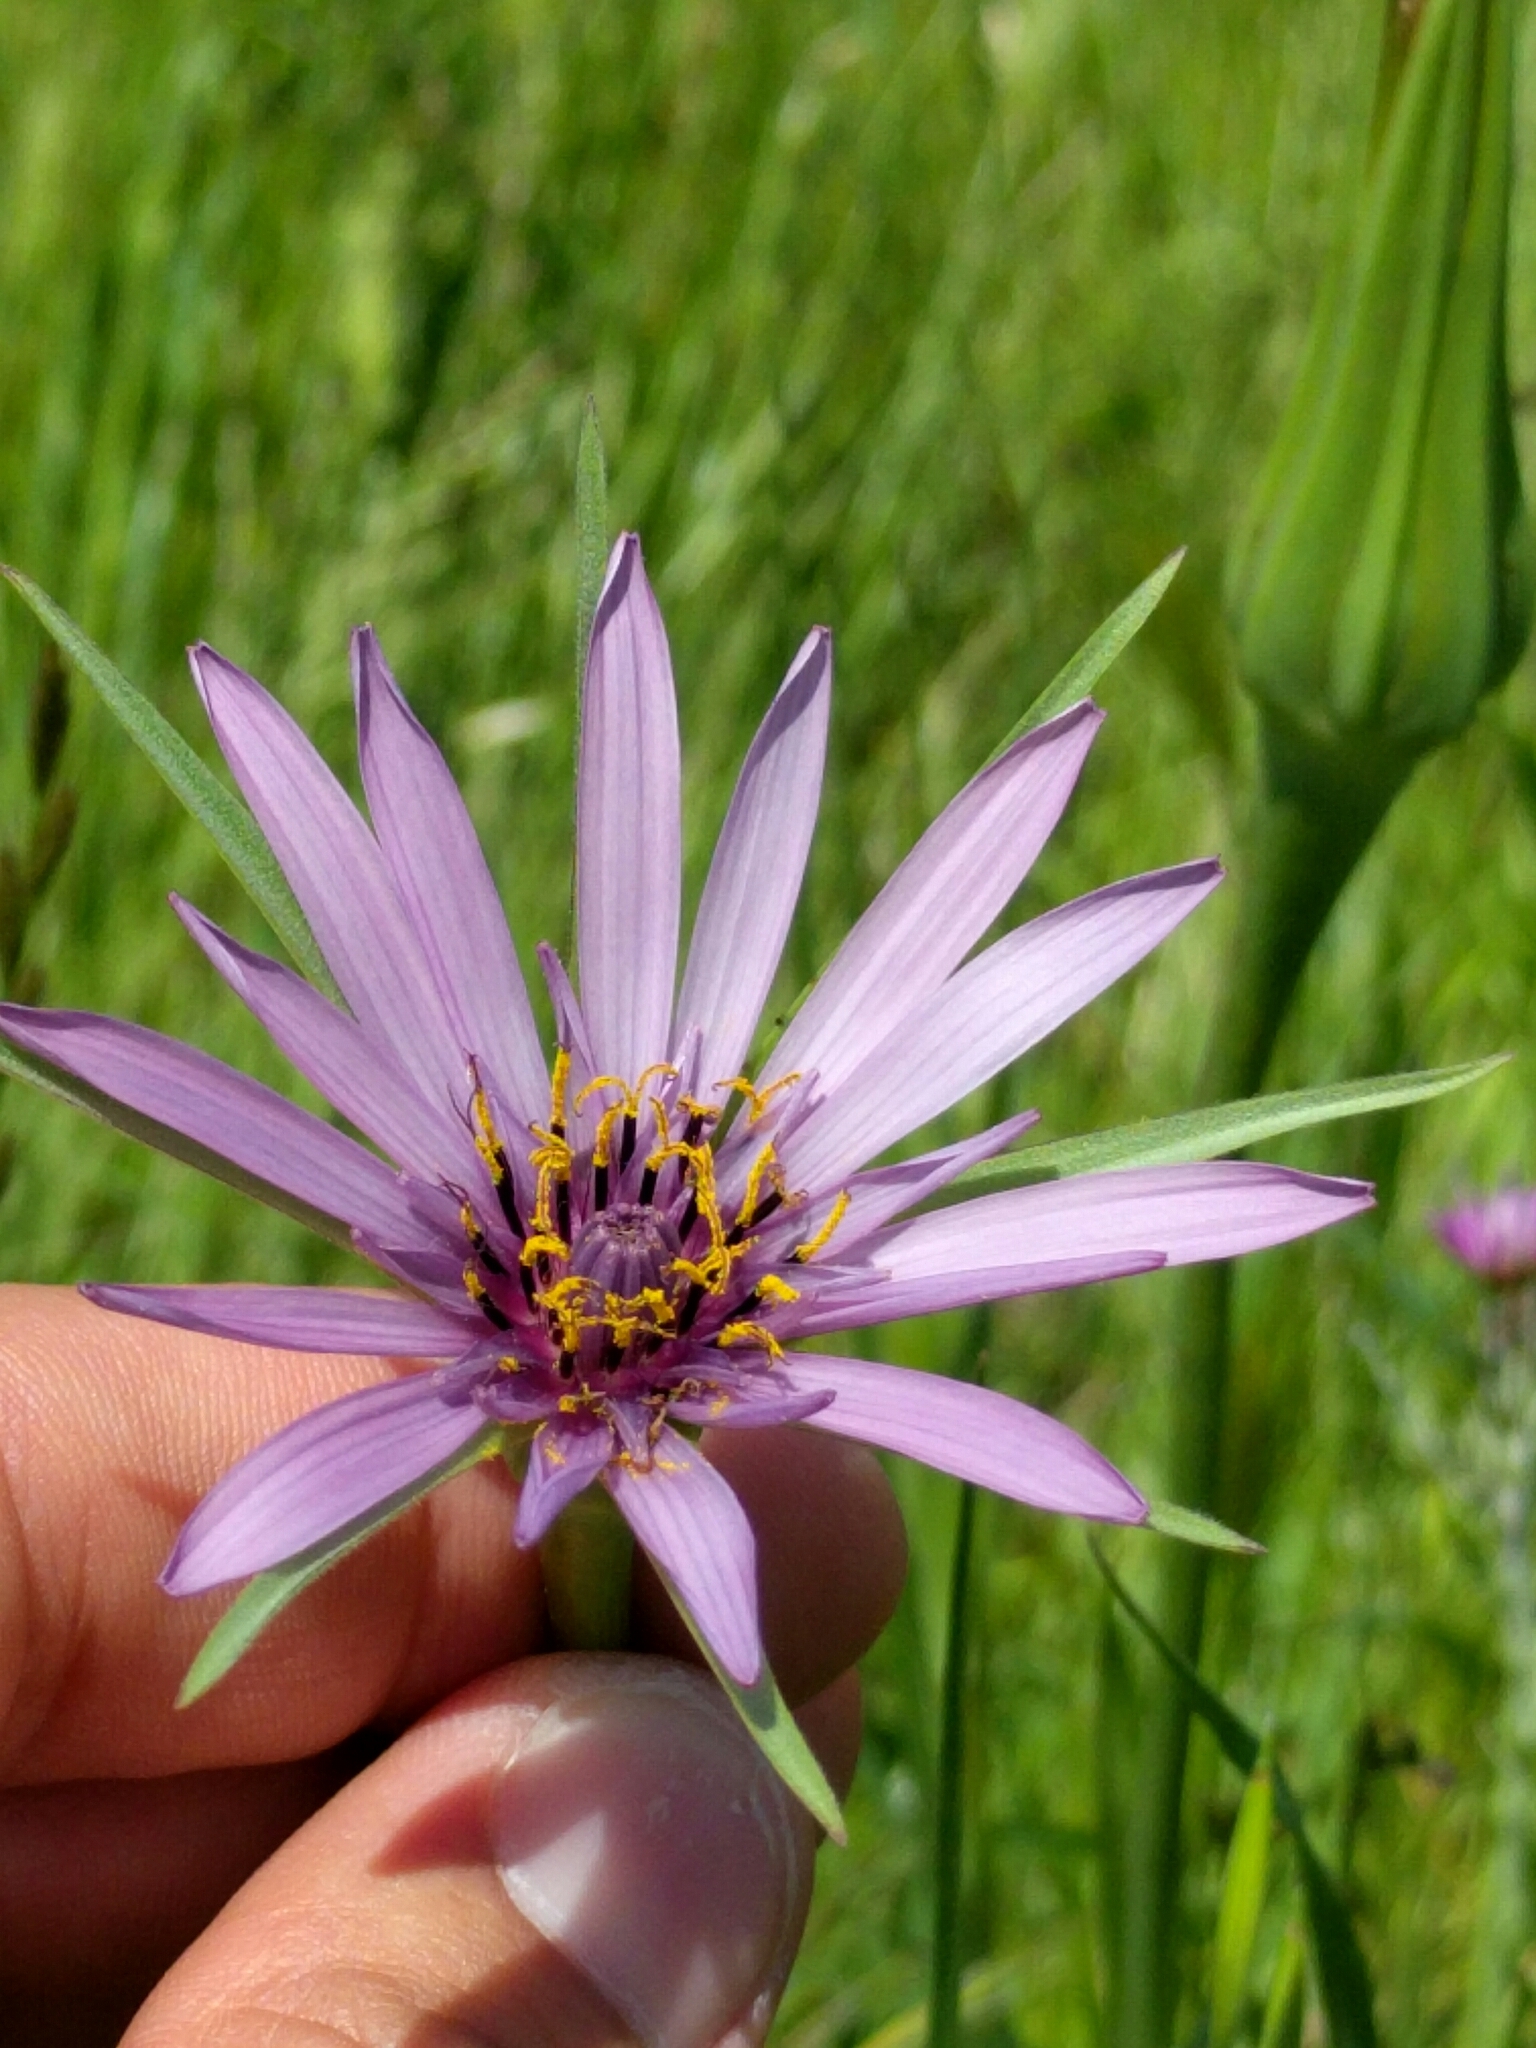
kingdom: Plantae
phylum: Tracheophyta
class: Magnoliopsida
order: Asterales
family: Asteraceae
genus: Tragopogon
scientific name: Tragopogon porrifolius
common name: Salsify
